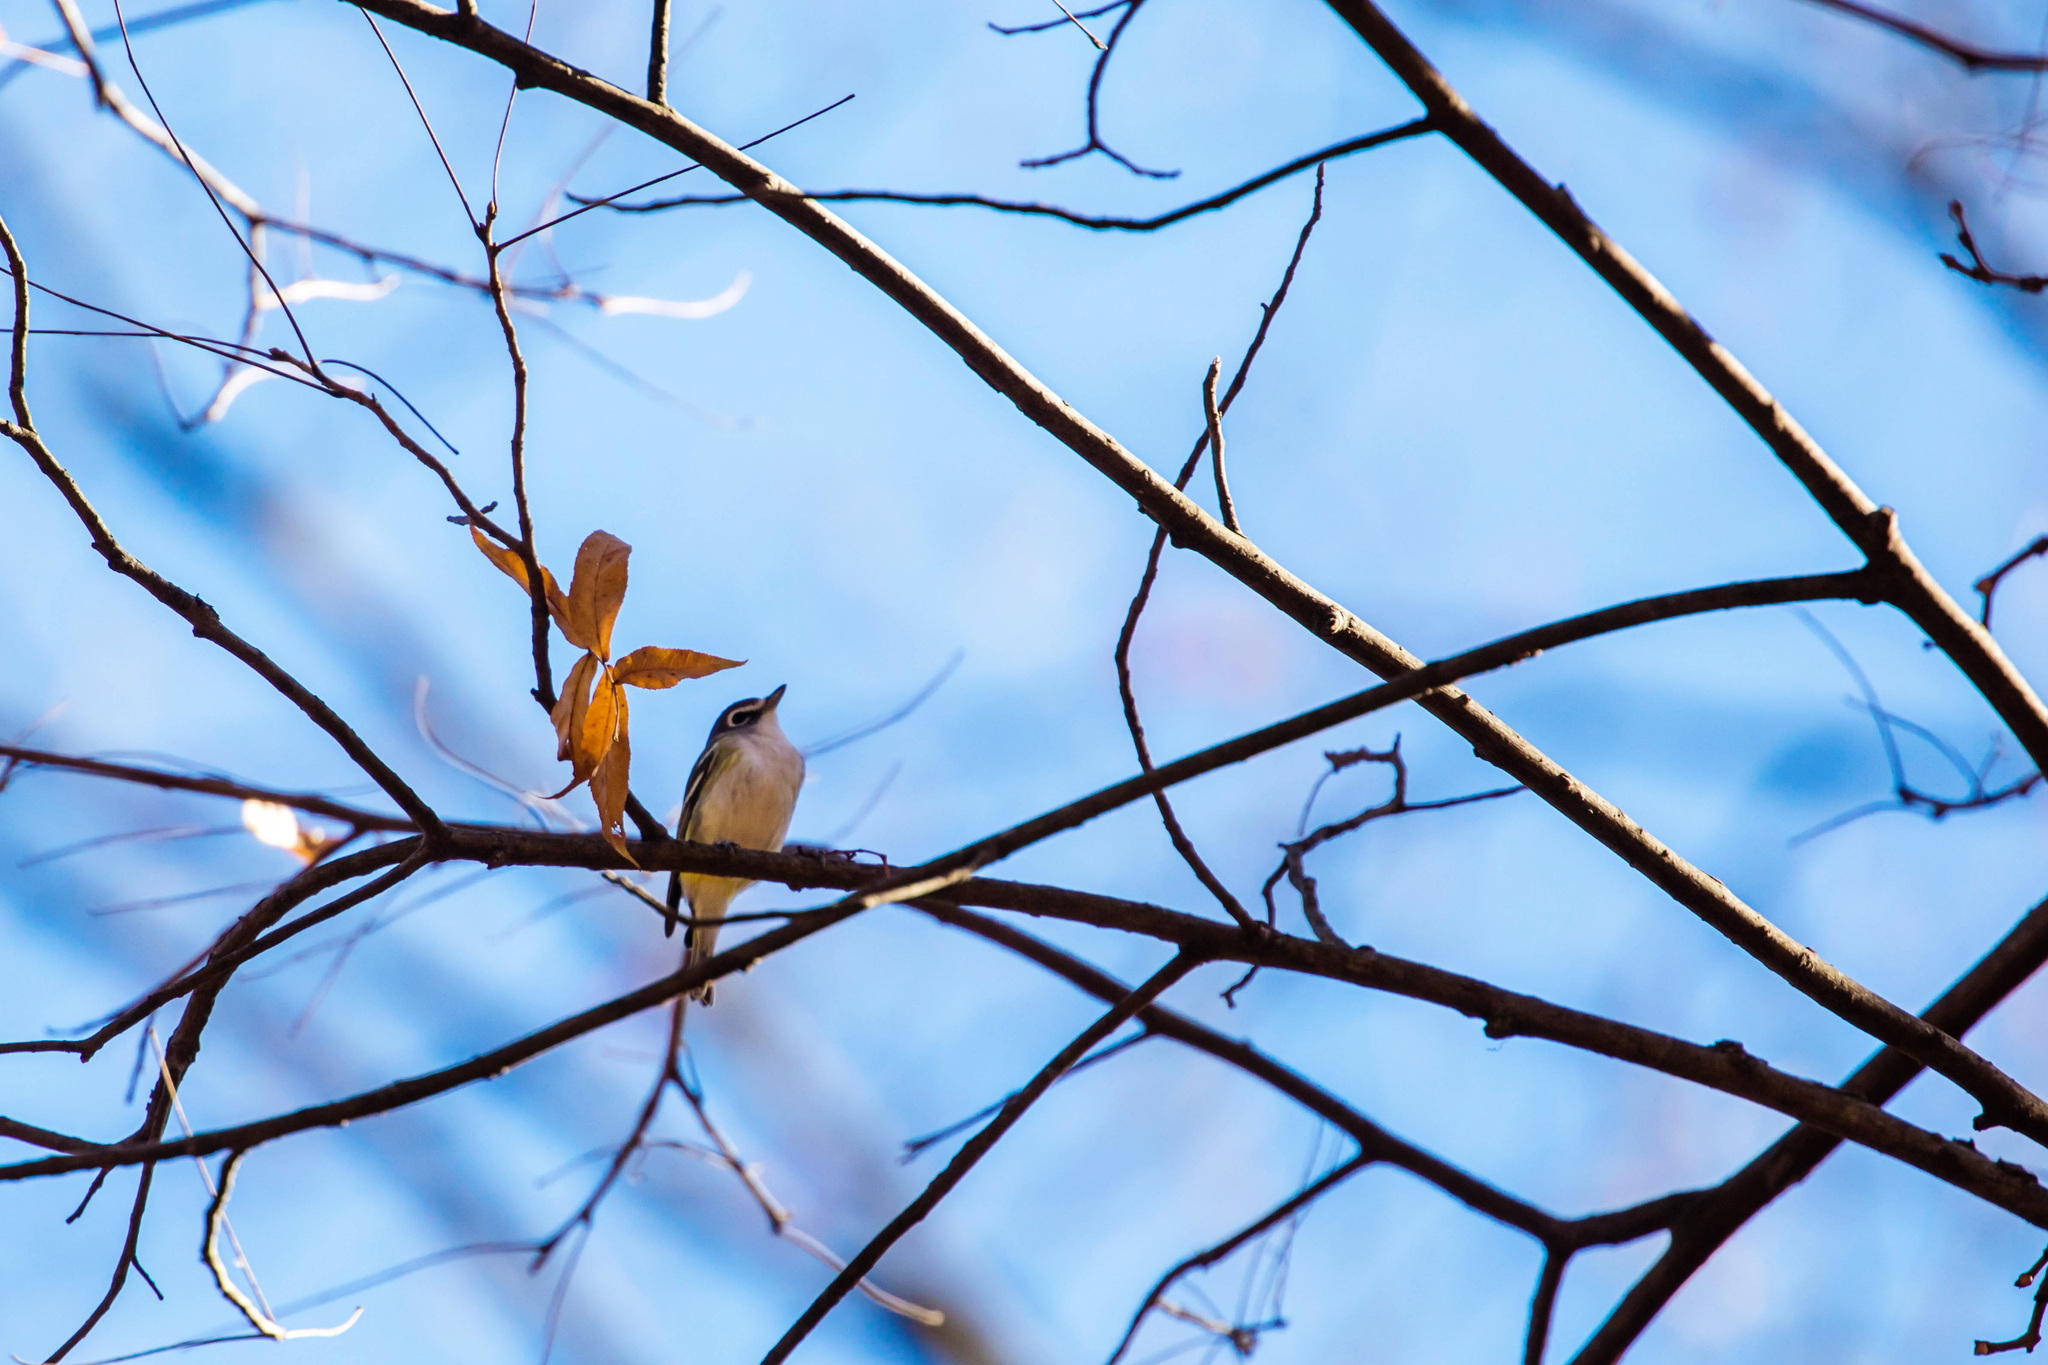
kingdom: Animalia
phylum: Chordata
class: Aves
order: Passeriformes
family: Vireonidae
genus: Vireo
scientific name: Vireo solitarius
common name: Blue-headed vireo
